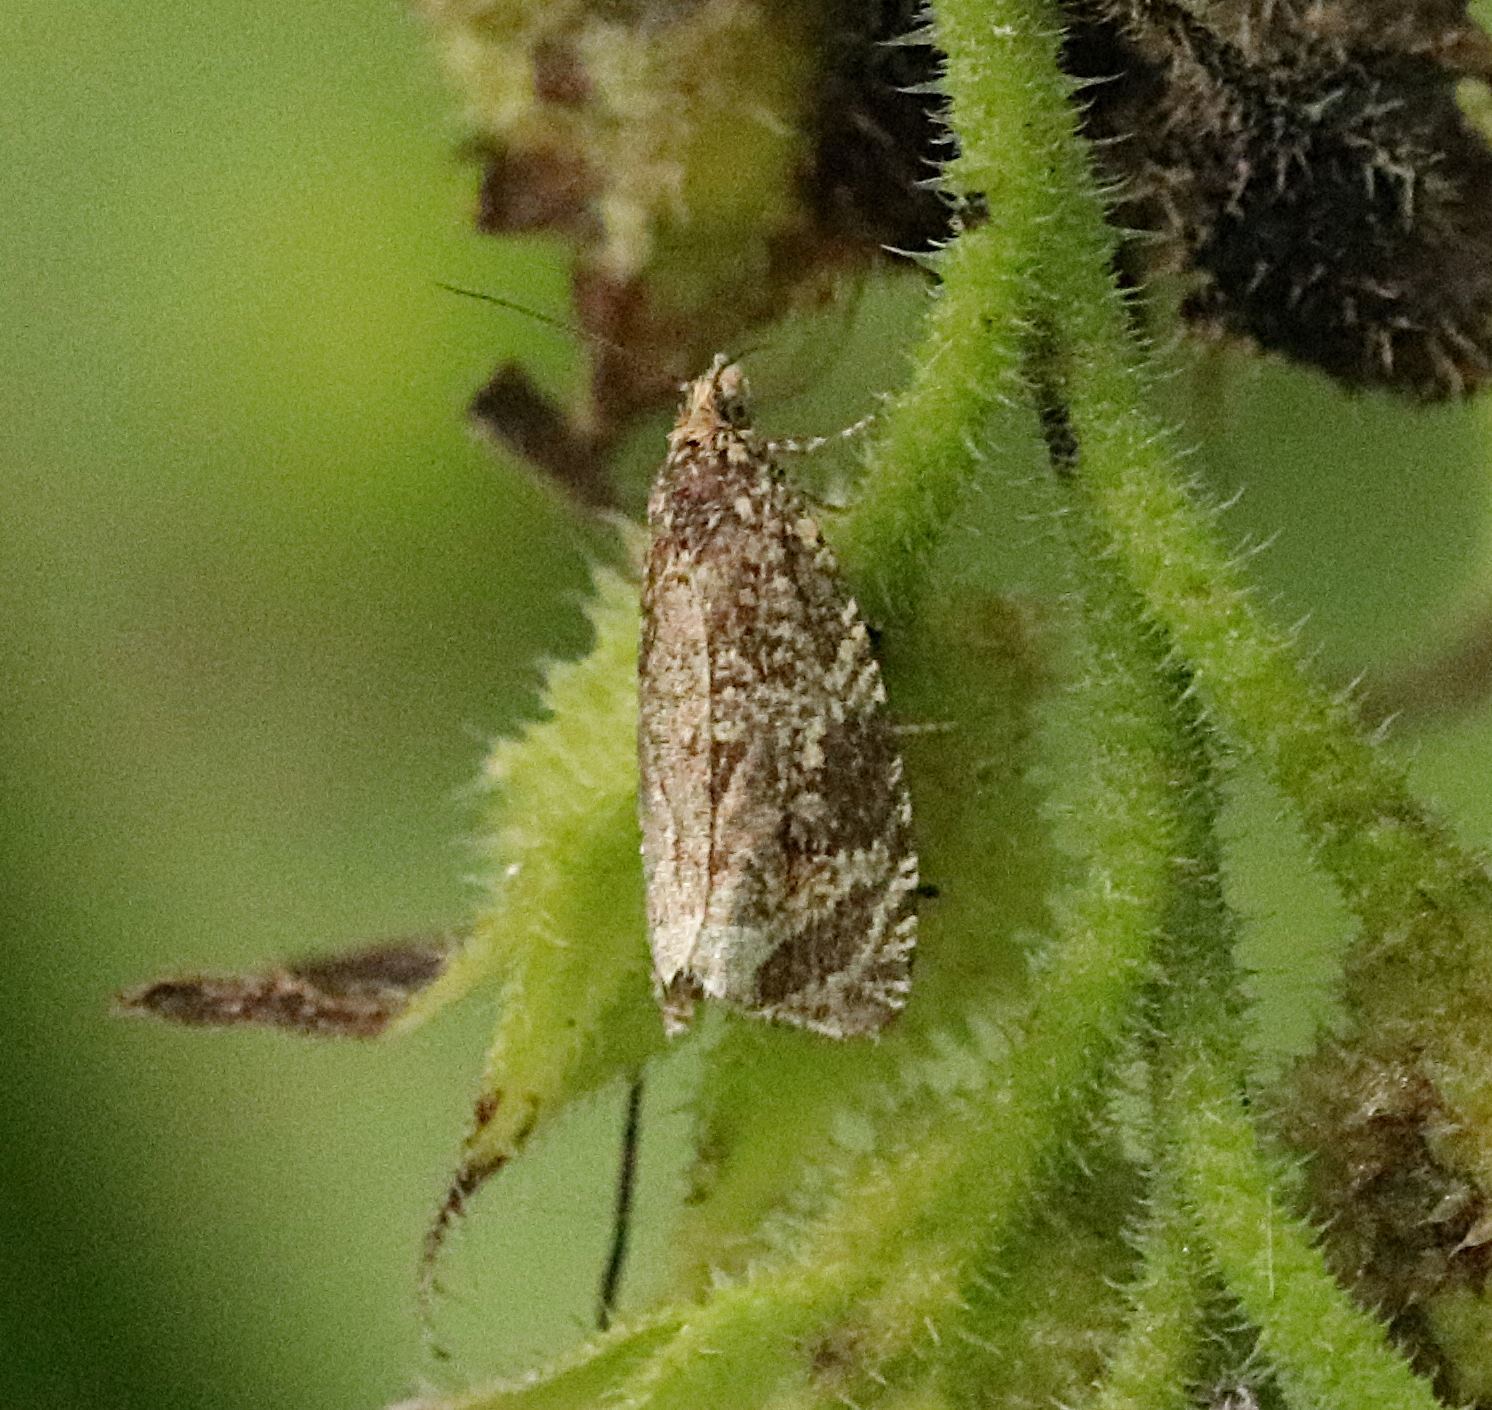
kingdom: Animalia
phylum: Arthropoda
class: Insecta
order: Lepidoptera
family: Tortricidae
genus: Syricoris
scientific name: Syricoris lacunana
